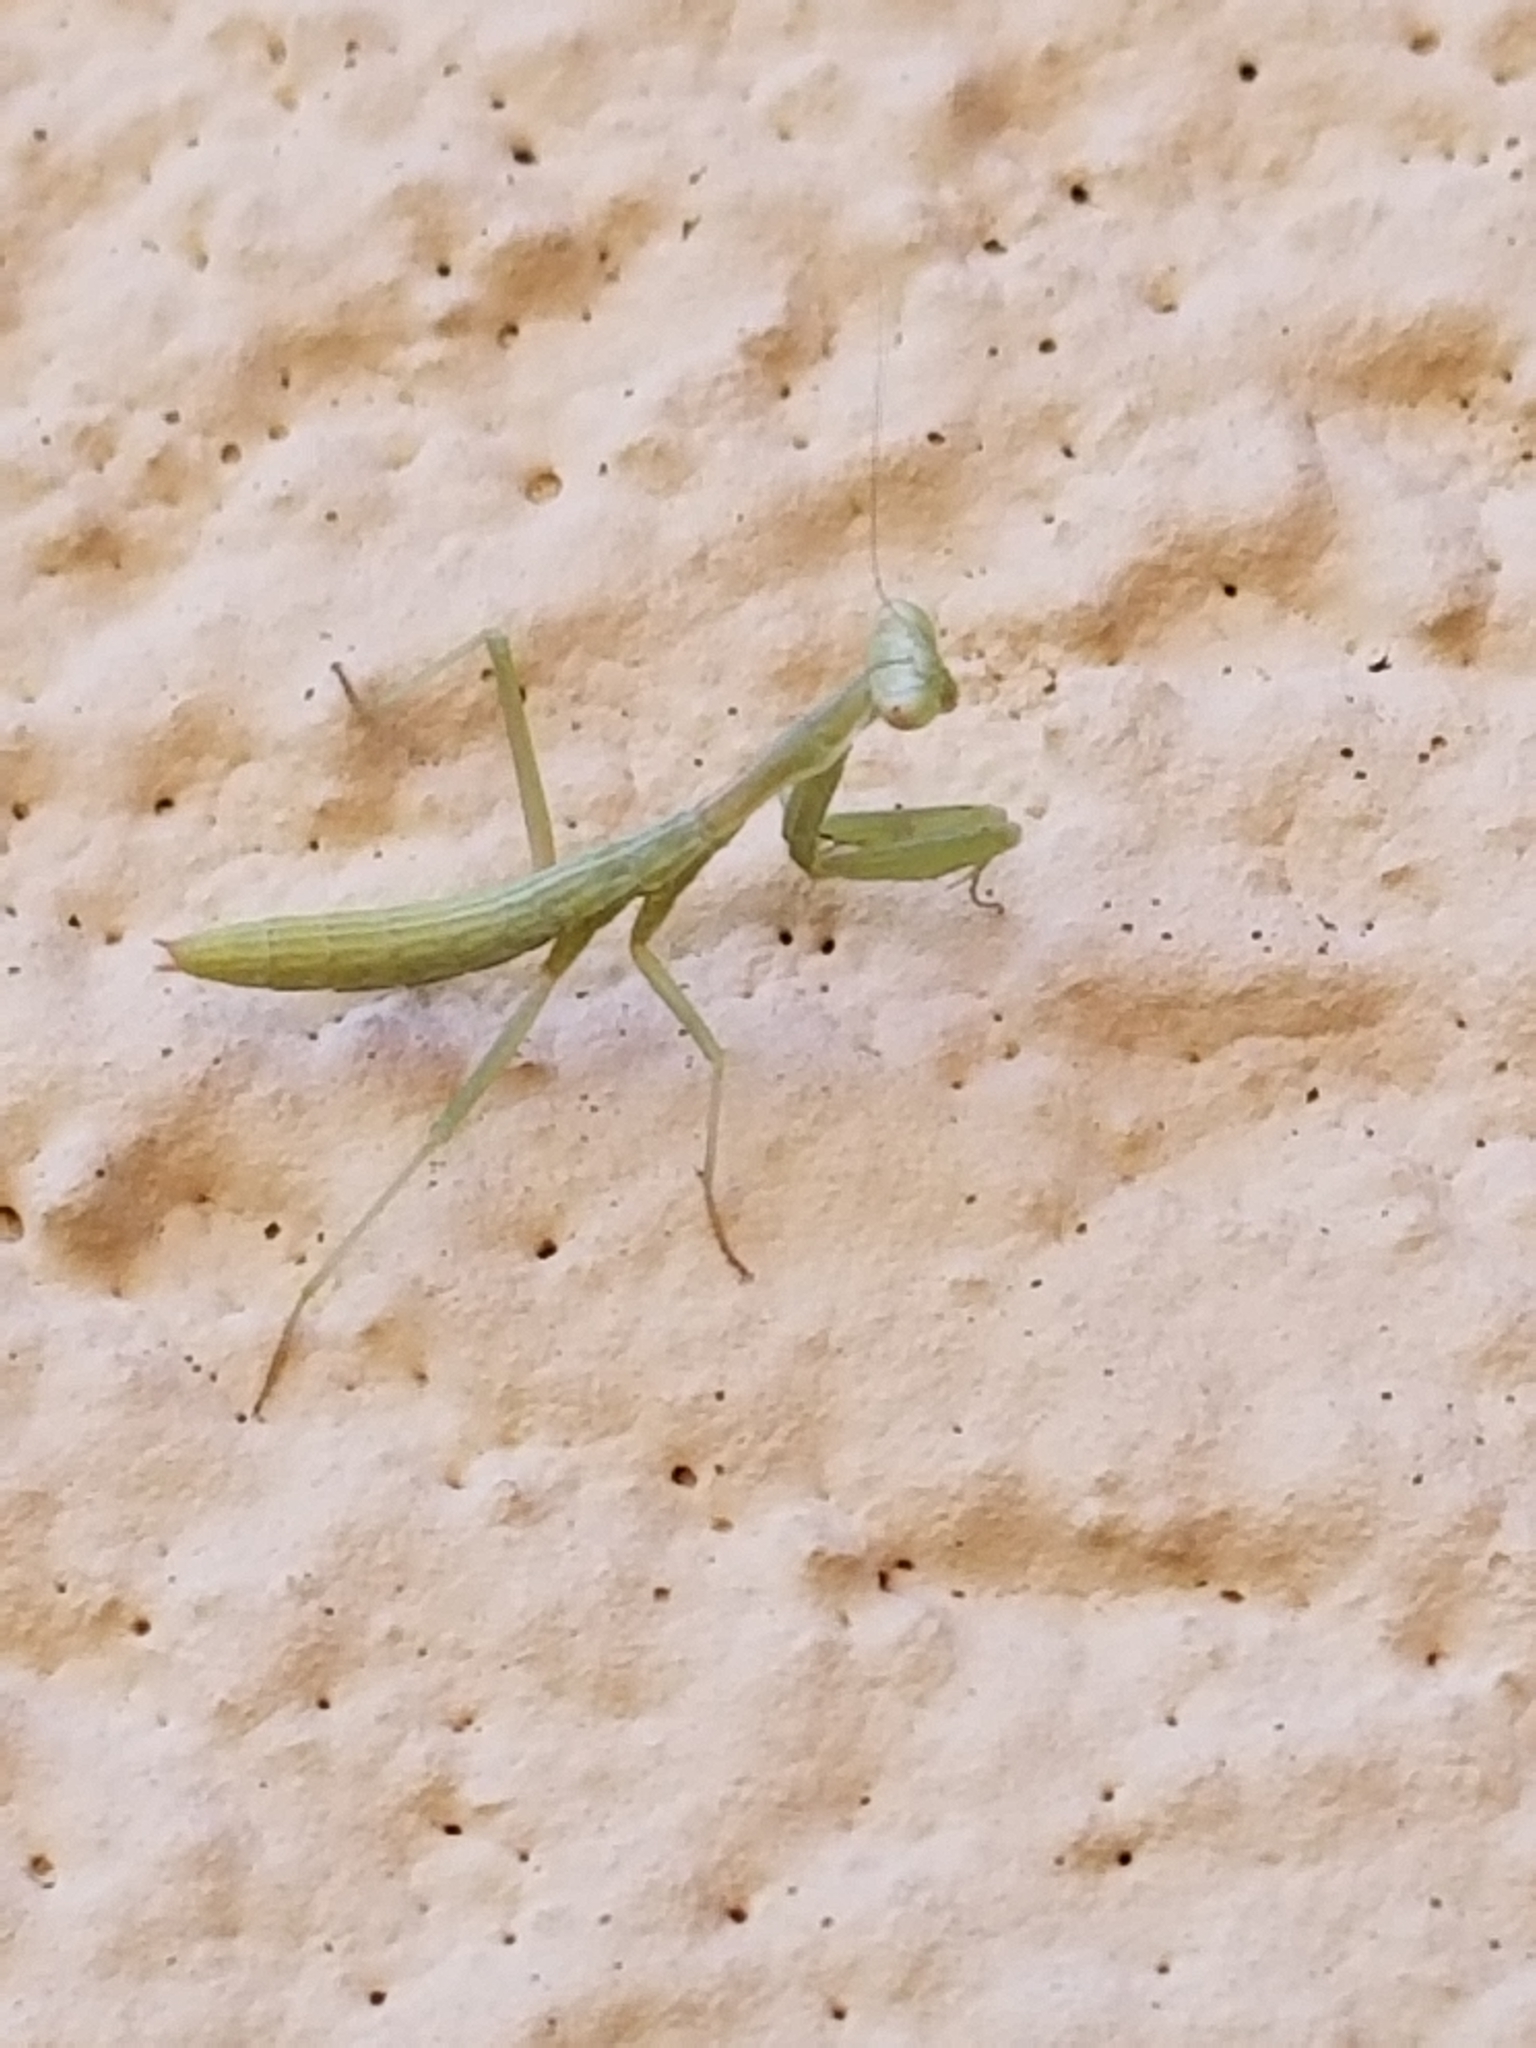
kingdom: Animalia
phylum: Arthropoda
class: Insecta
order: Mantodea
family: Eremiaphilidae
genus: Iris
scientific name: Iris oratoria
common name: Mediterranean mantis
